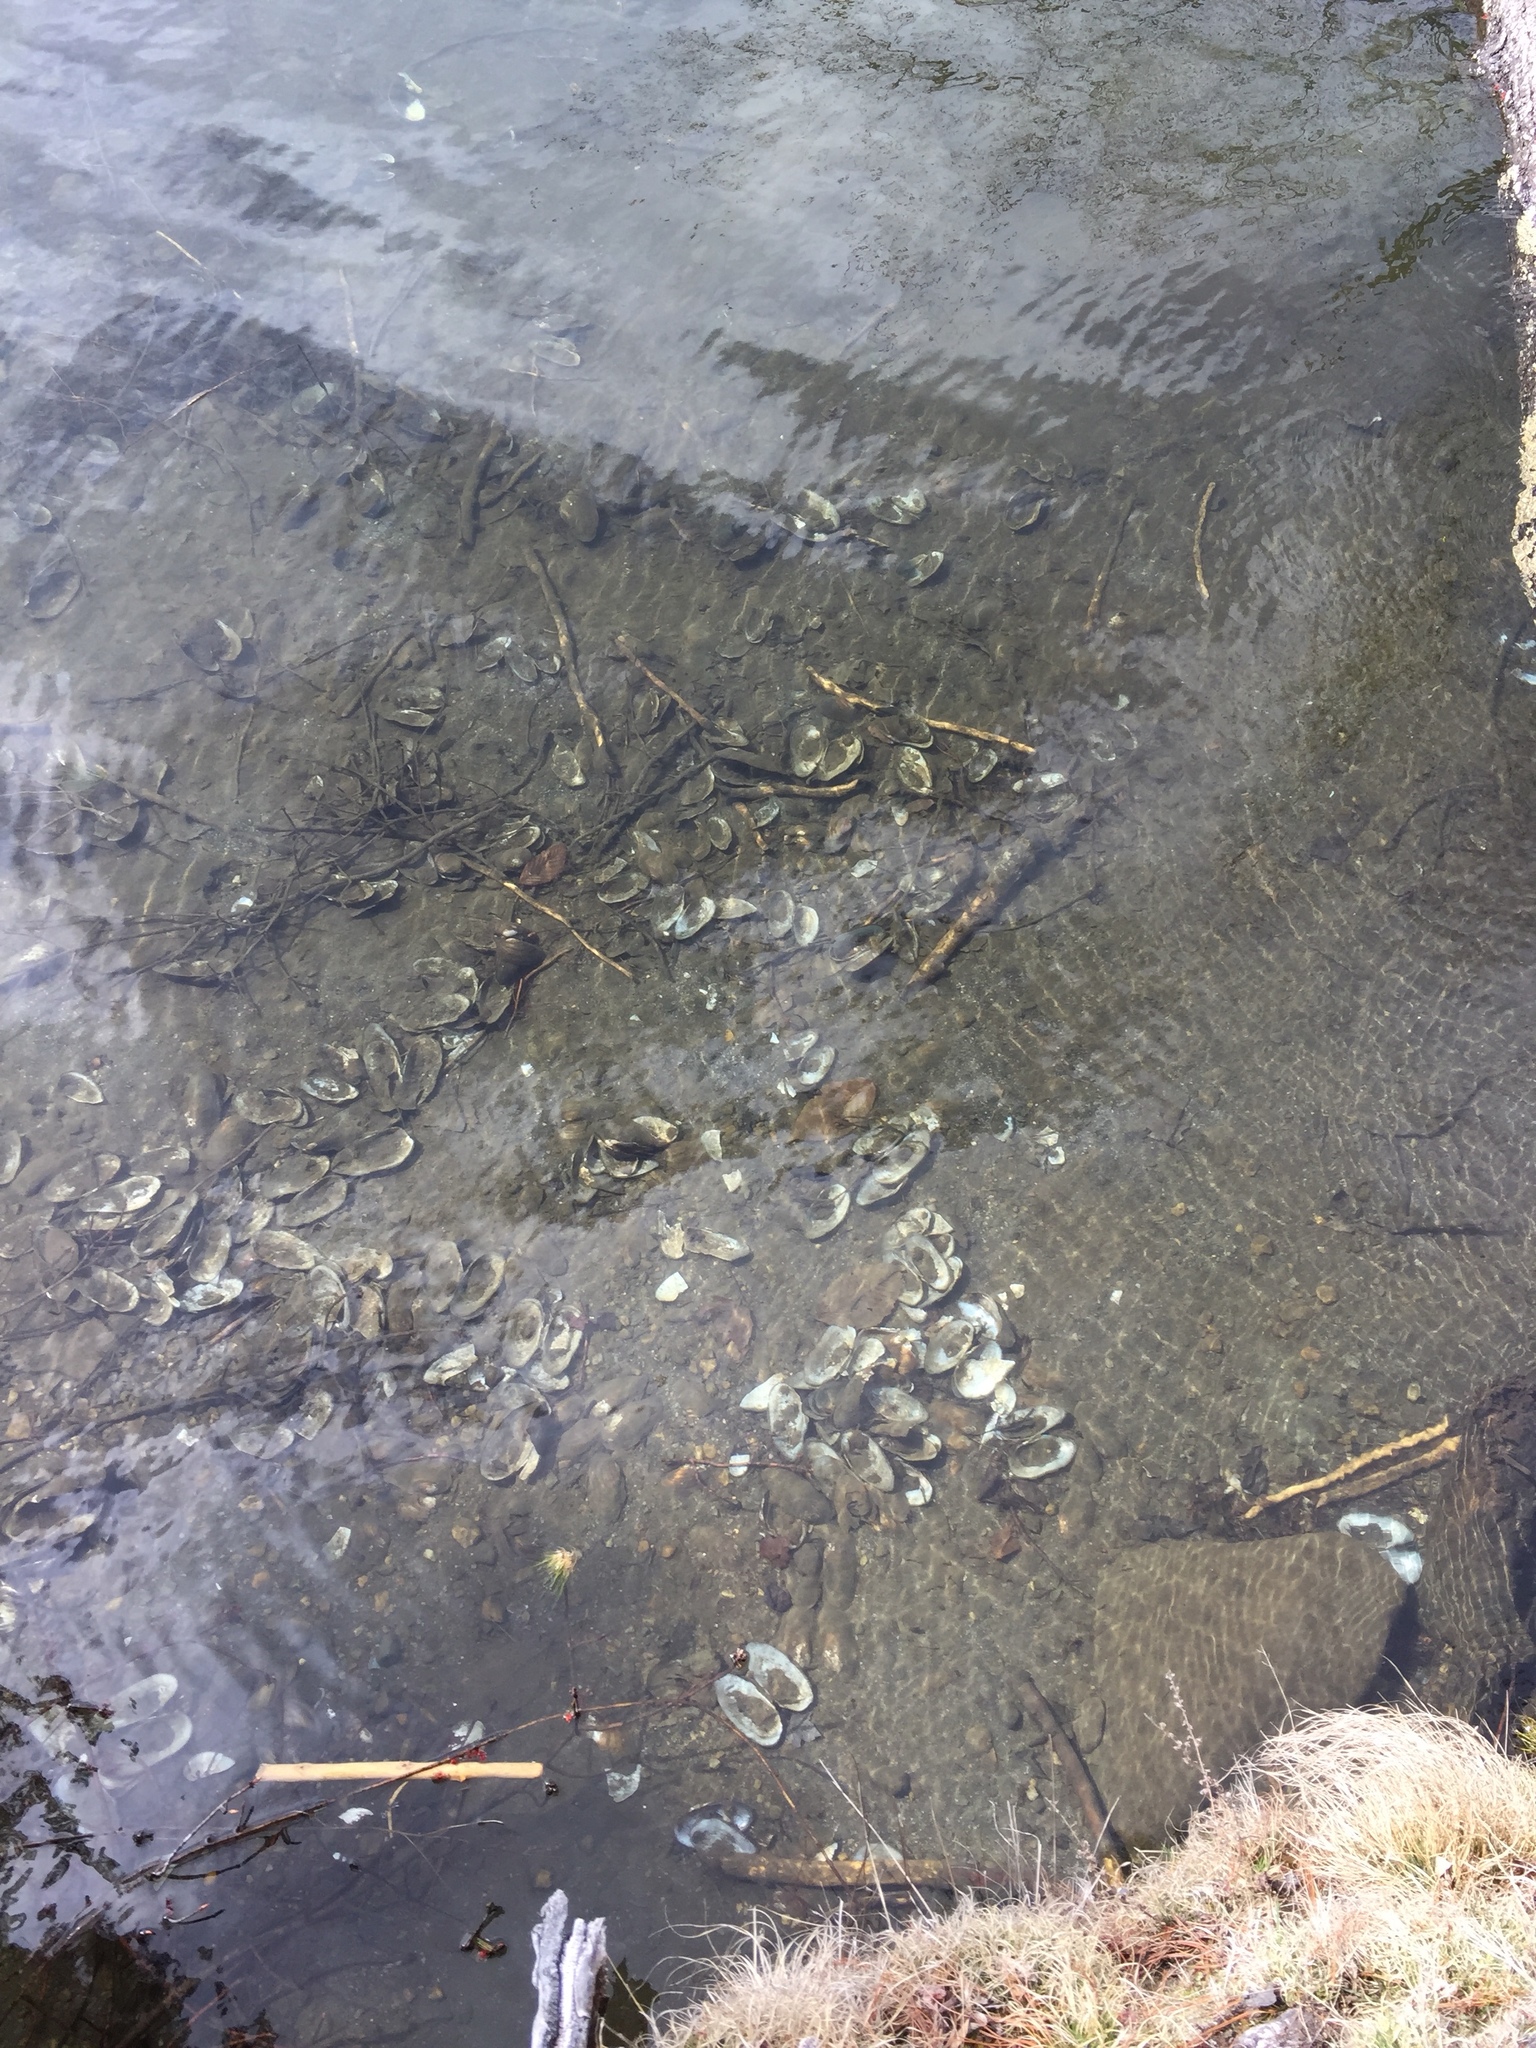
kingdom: Animalia
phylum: Mollusca
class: Bivalvia
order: Unionida
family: Unionidae
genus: Pyganodon
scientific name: Pyganodon cataracta
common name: Eastern floater
